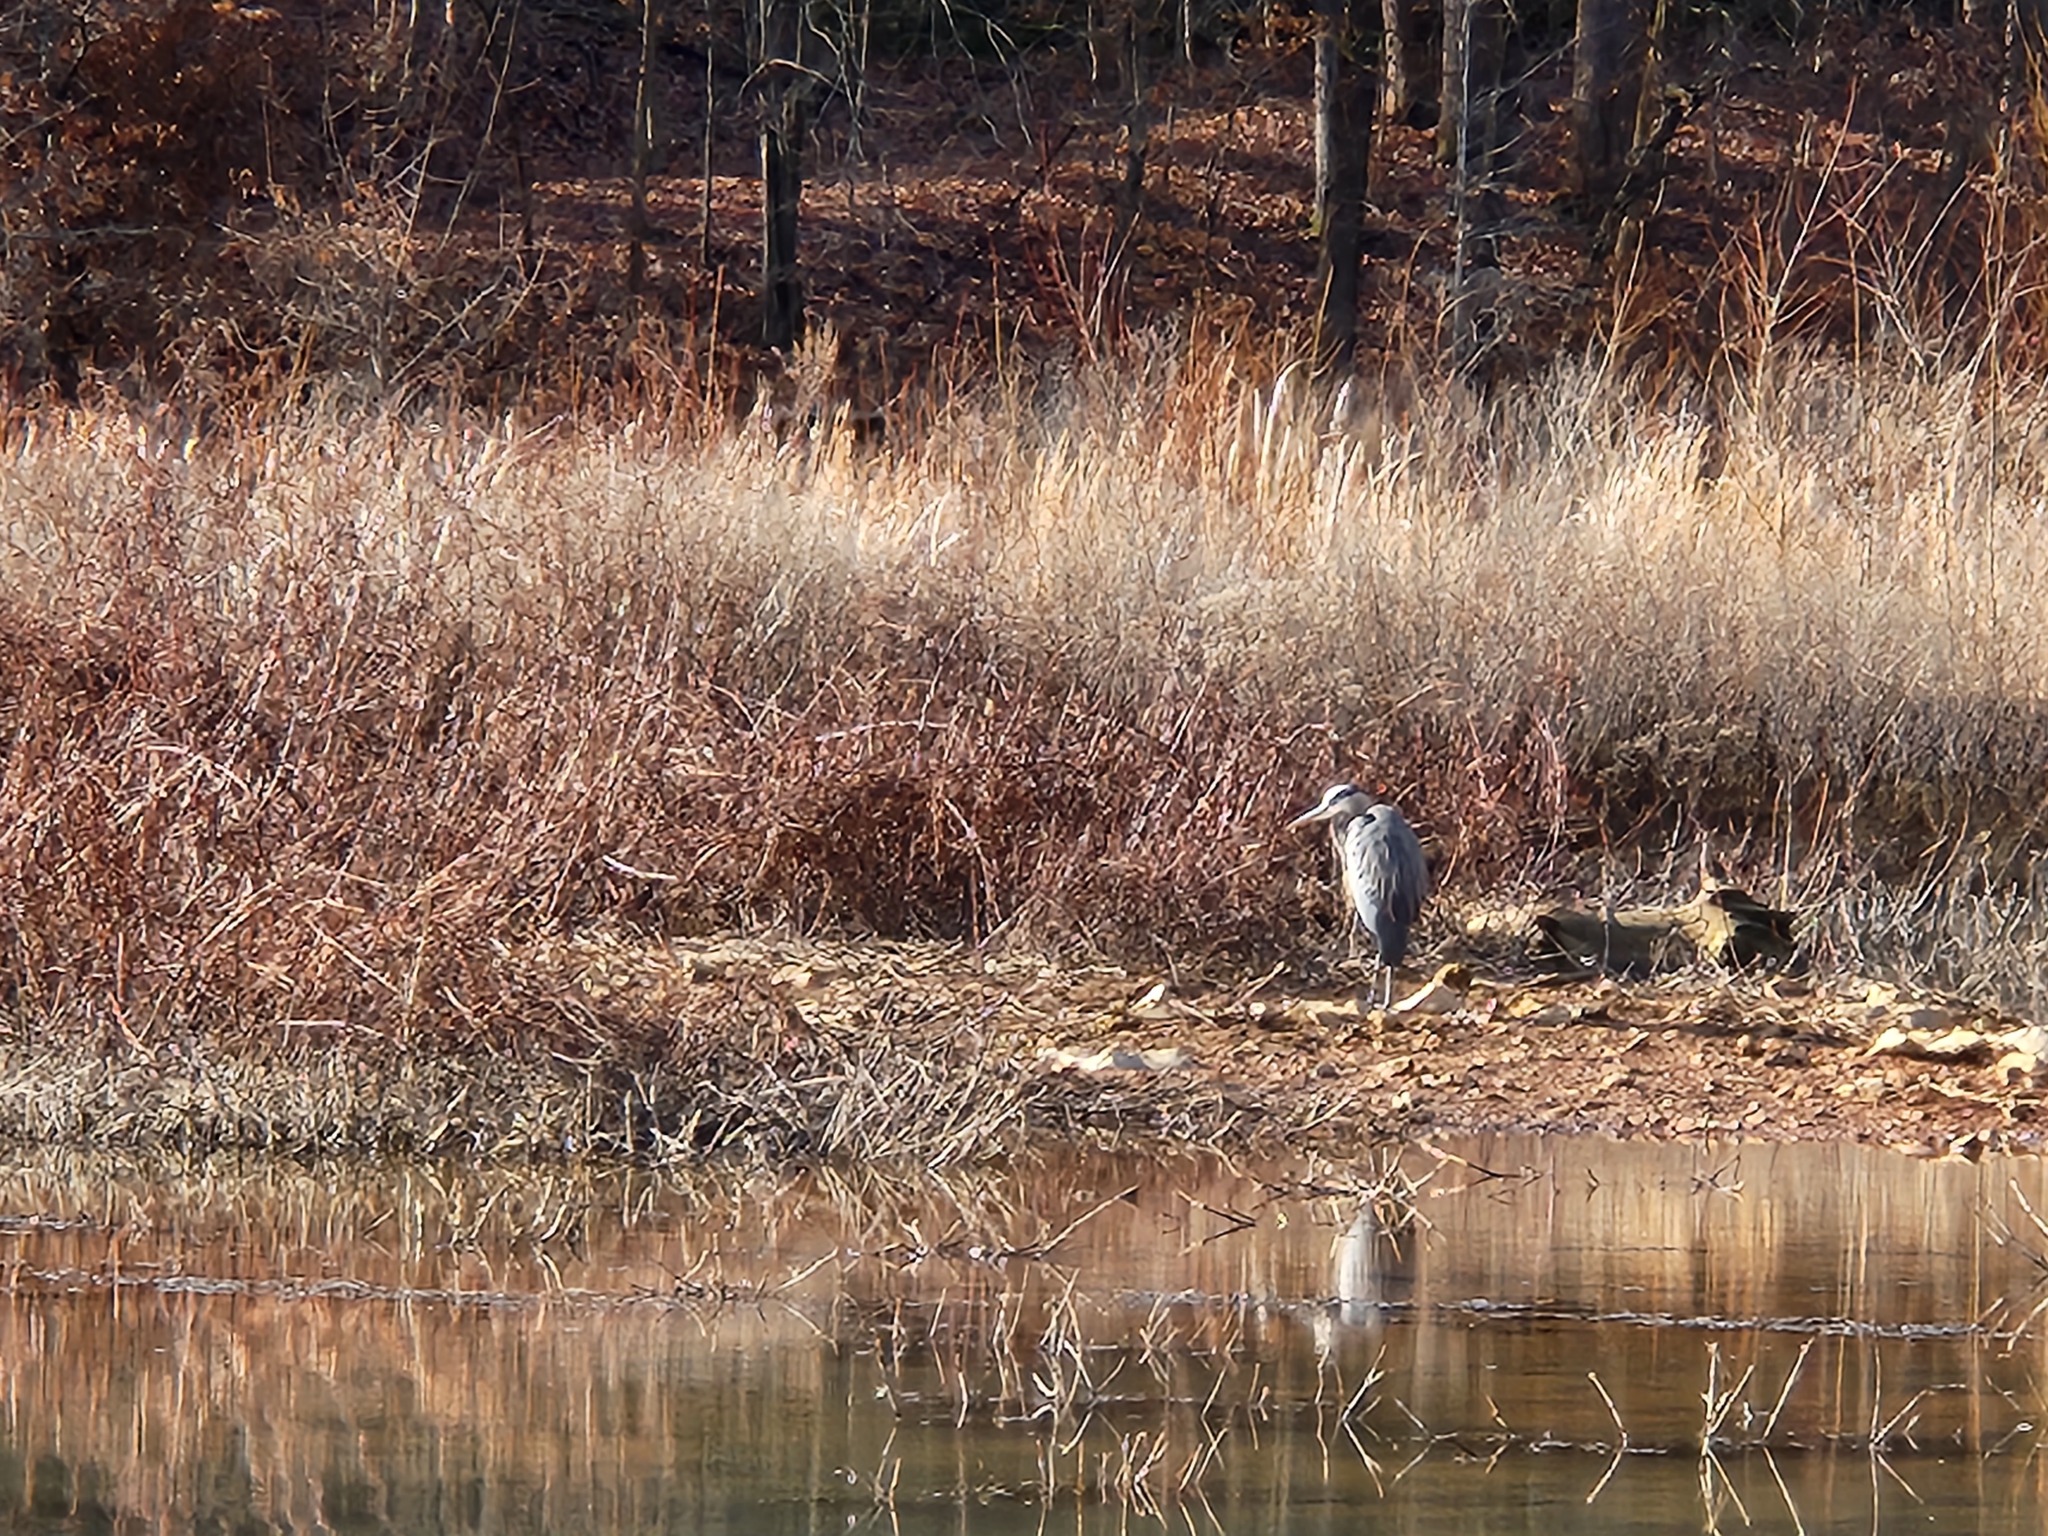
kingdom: Animalia
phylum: Chordata
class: Aves
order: Pelecaniformes
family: Ardeidae
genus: Ardea
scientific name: Ardea herodias
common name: Great blue heron
